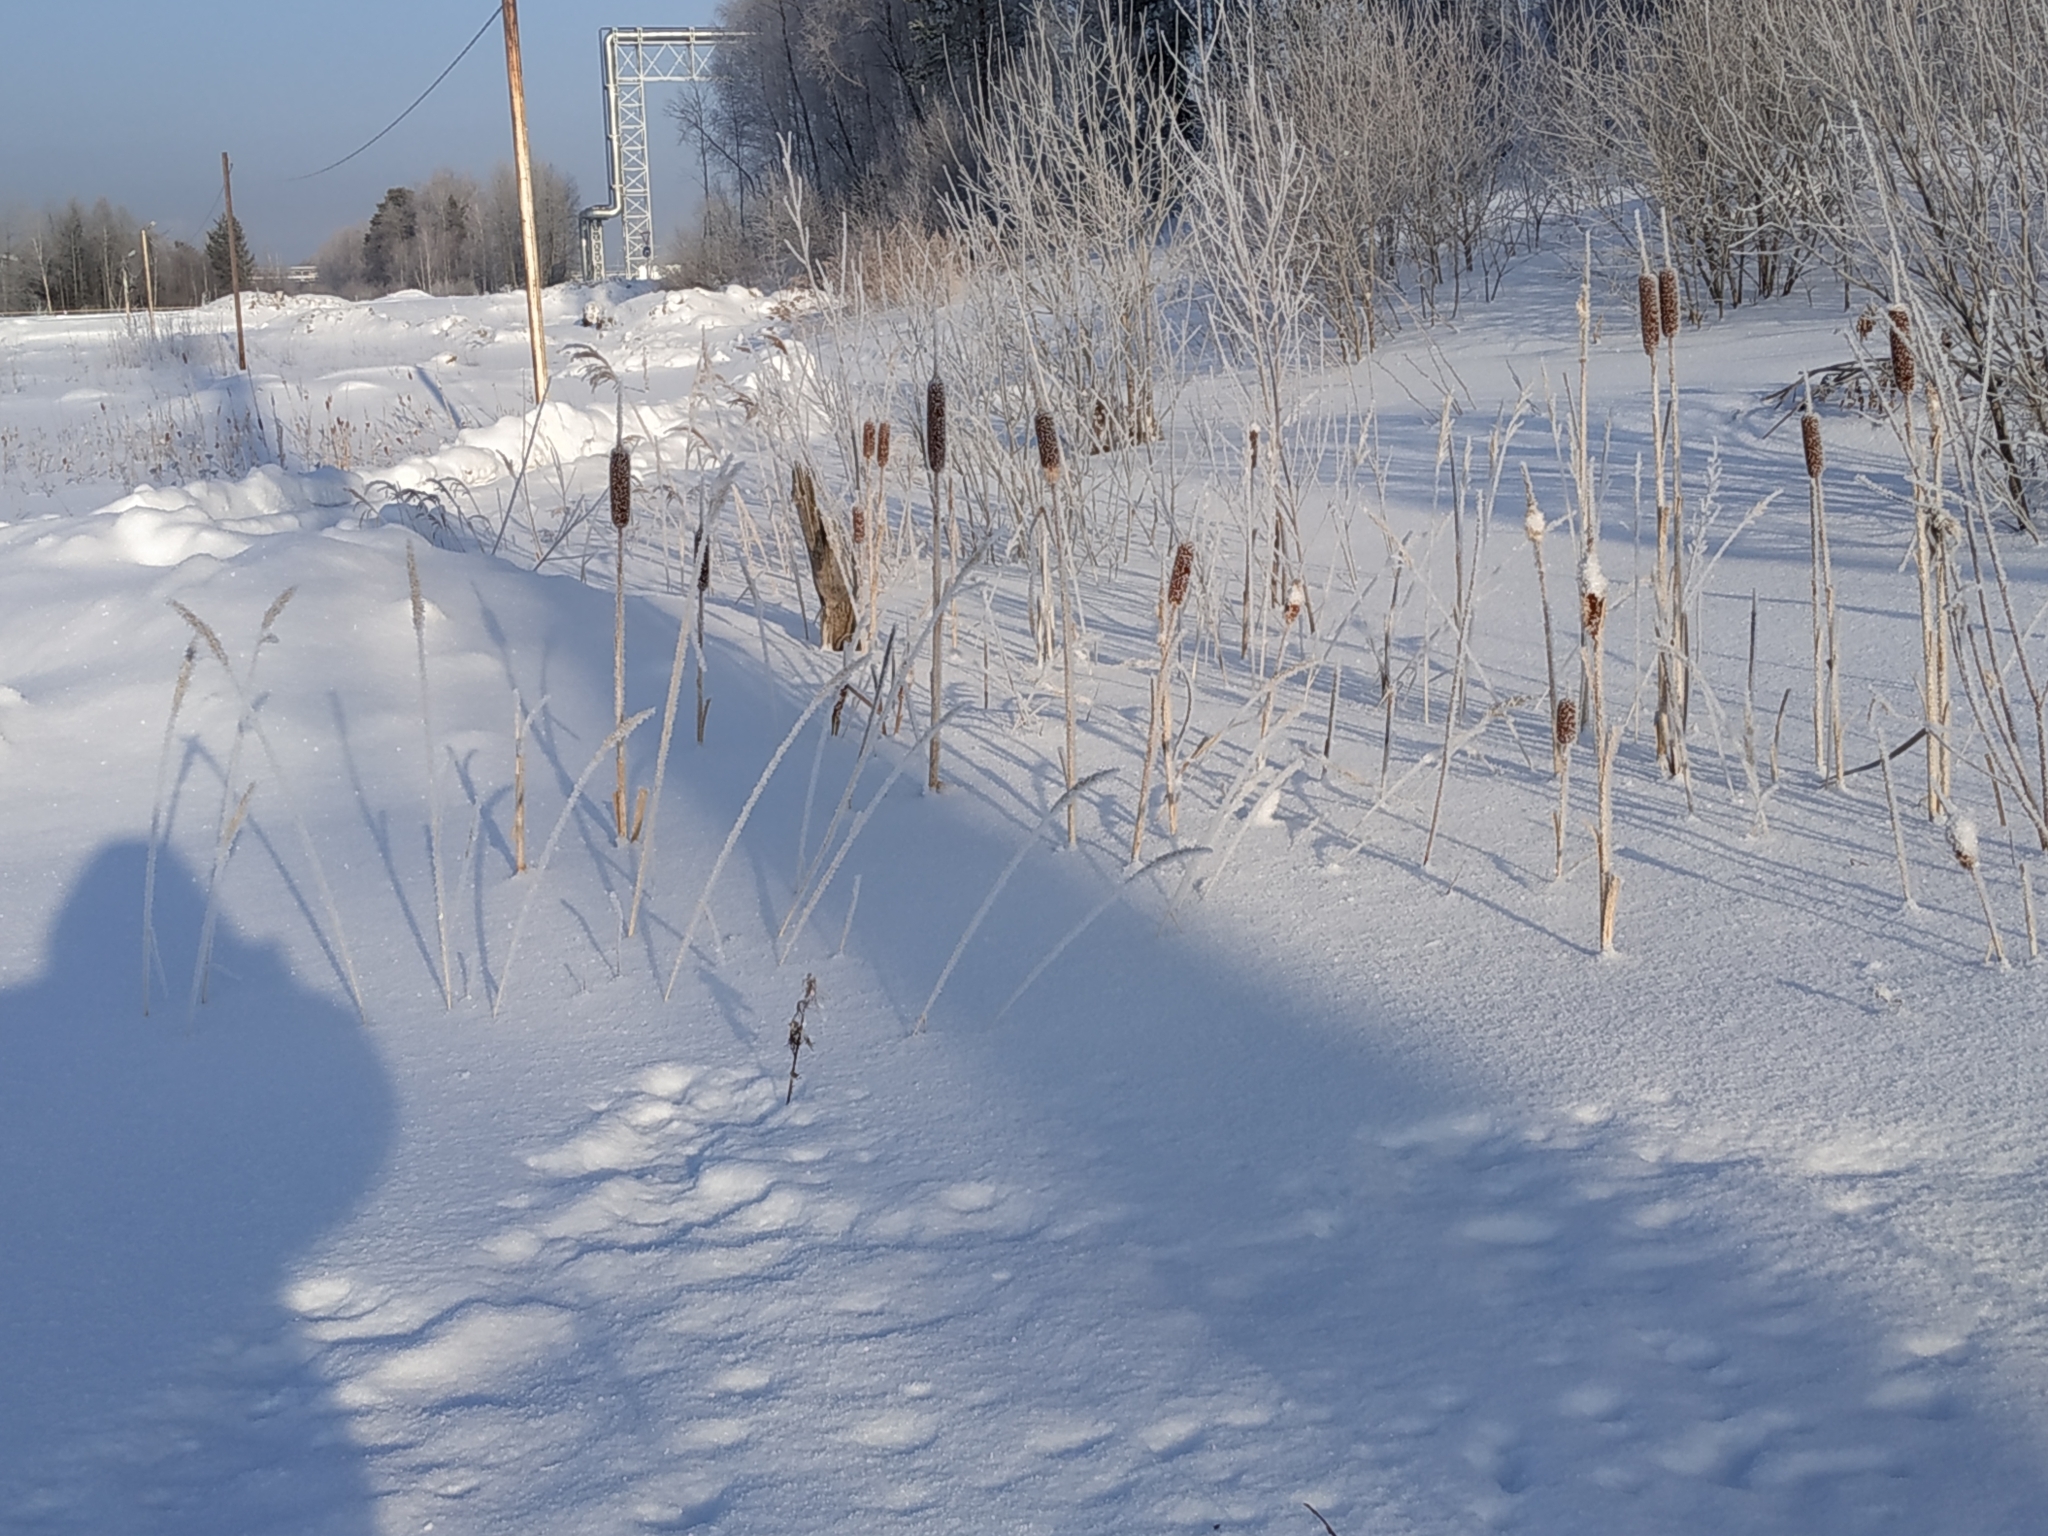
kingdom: Plantae
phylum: Tracheophyta
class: Liliopsida
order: Poales
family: Typhaceae
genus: Typha
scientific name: Typha latifolia
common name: Broadleaf cattail
